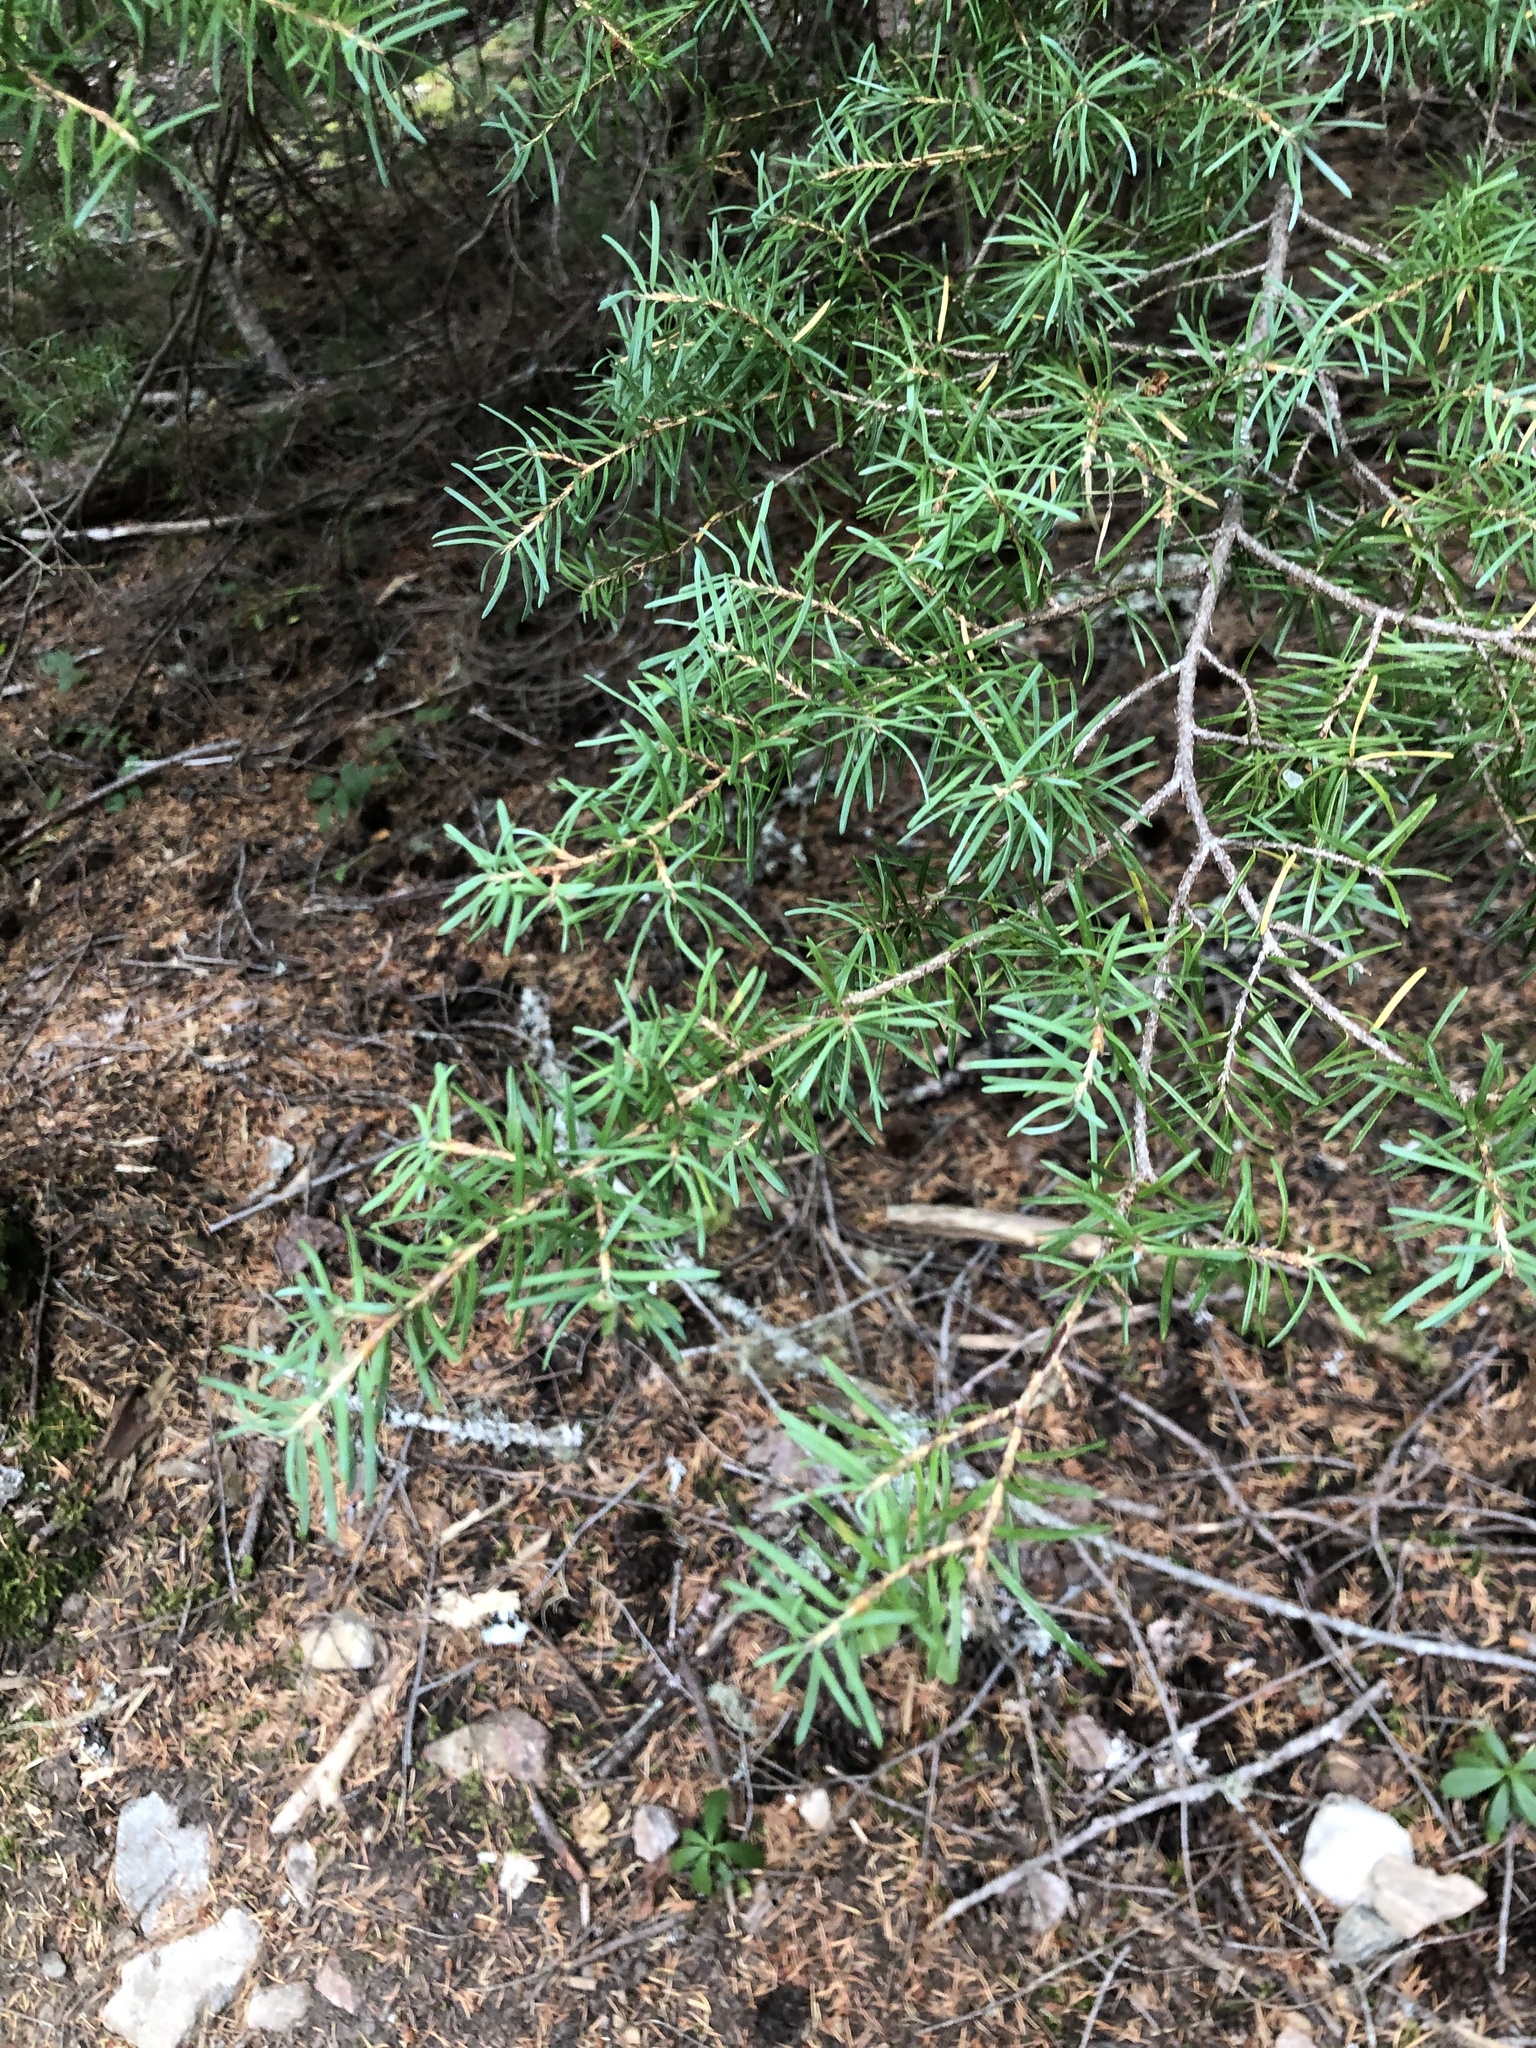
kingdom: Plantae
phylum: Tracheophyta
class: Pinopsida
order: Pinales
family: Pinaceae
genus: Tsuga
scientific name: Tsuga mertensiana
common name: Mountain hemlock
